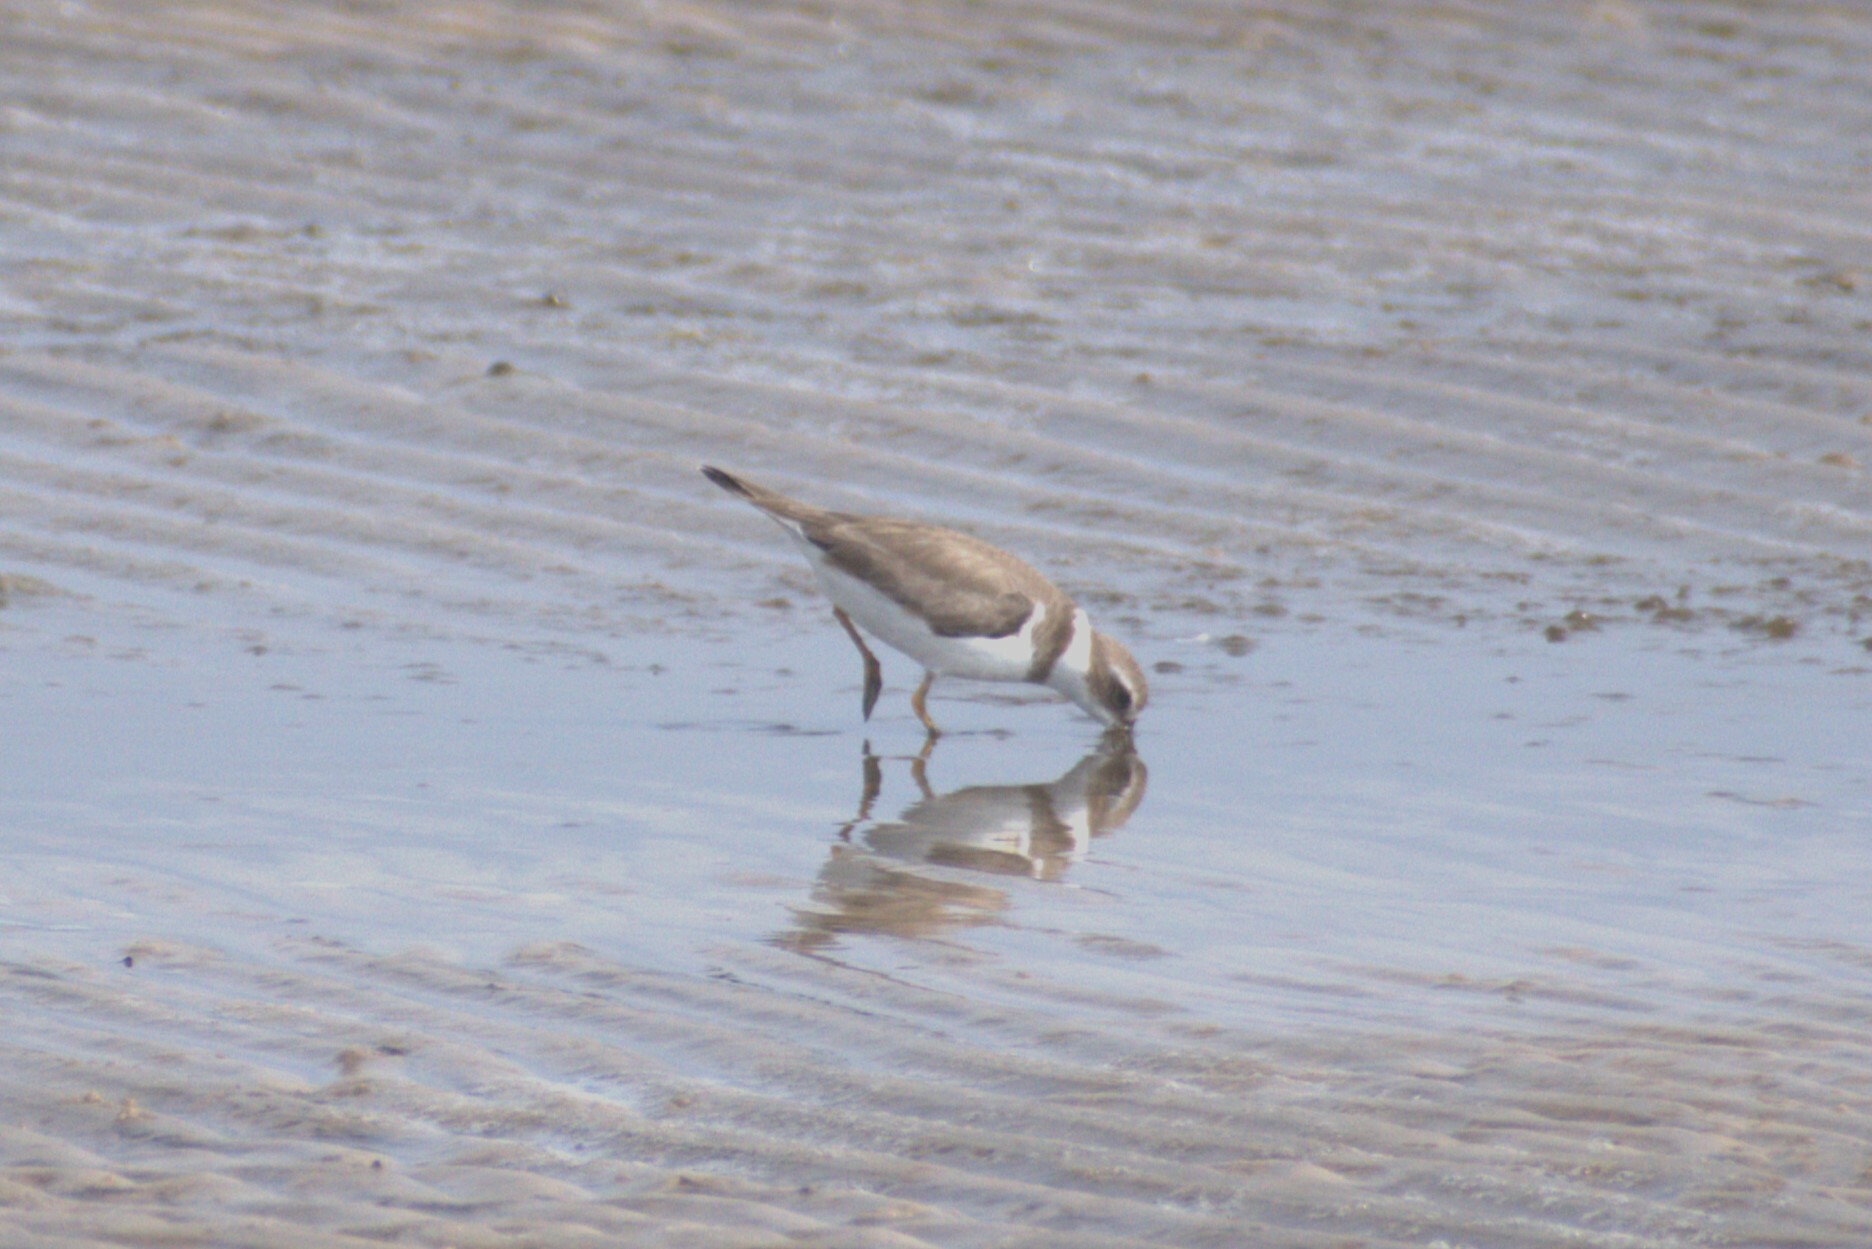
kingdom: Animalia
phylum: Chordata
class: Aves
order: Charadriiformes
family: Charadriidae
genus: Charadrius
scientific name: Charadrius semipalmatus
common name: Semipalmated plover
